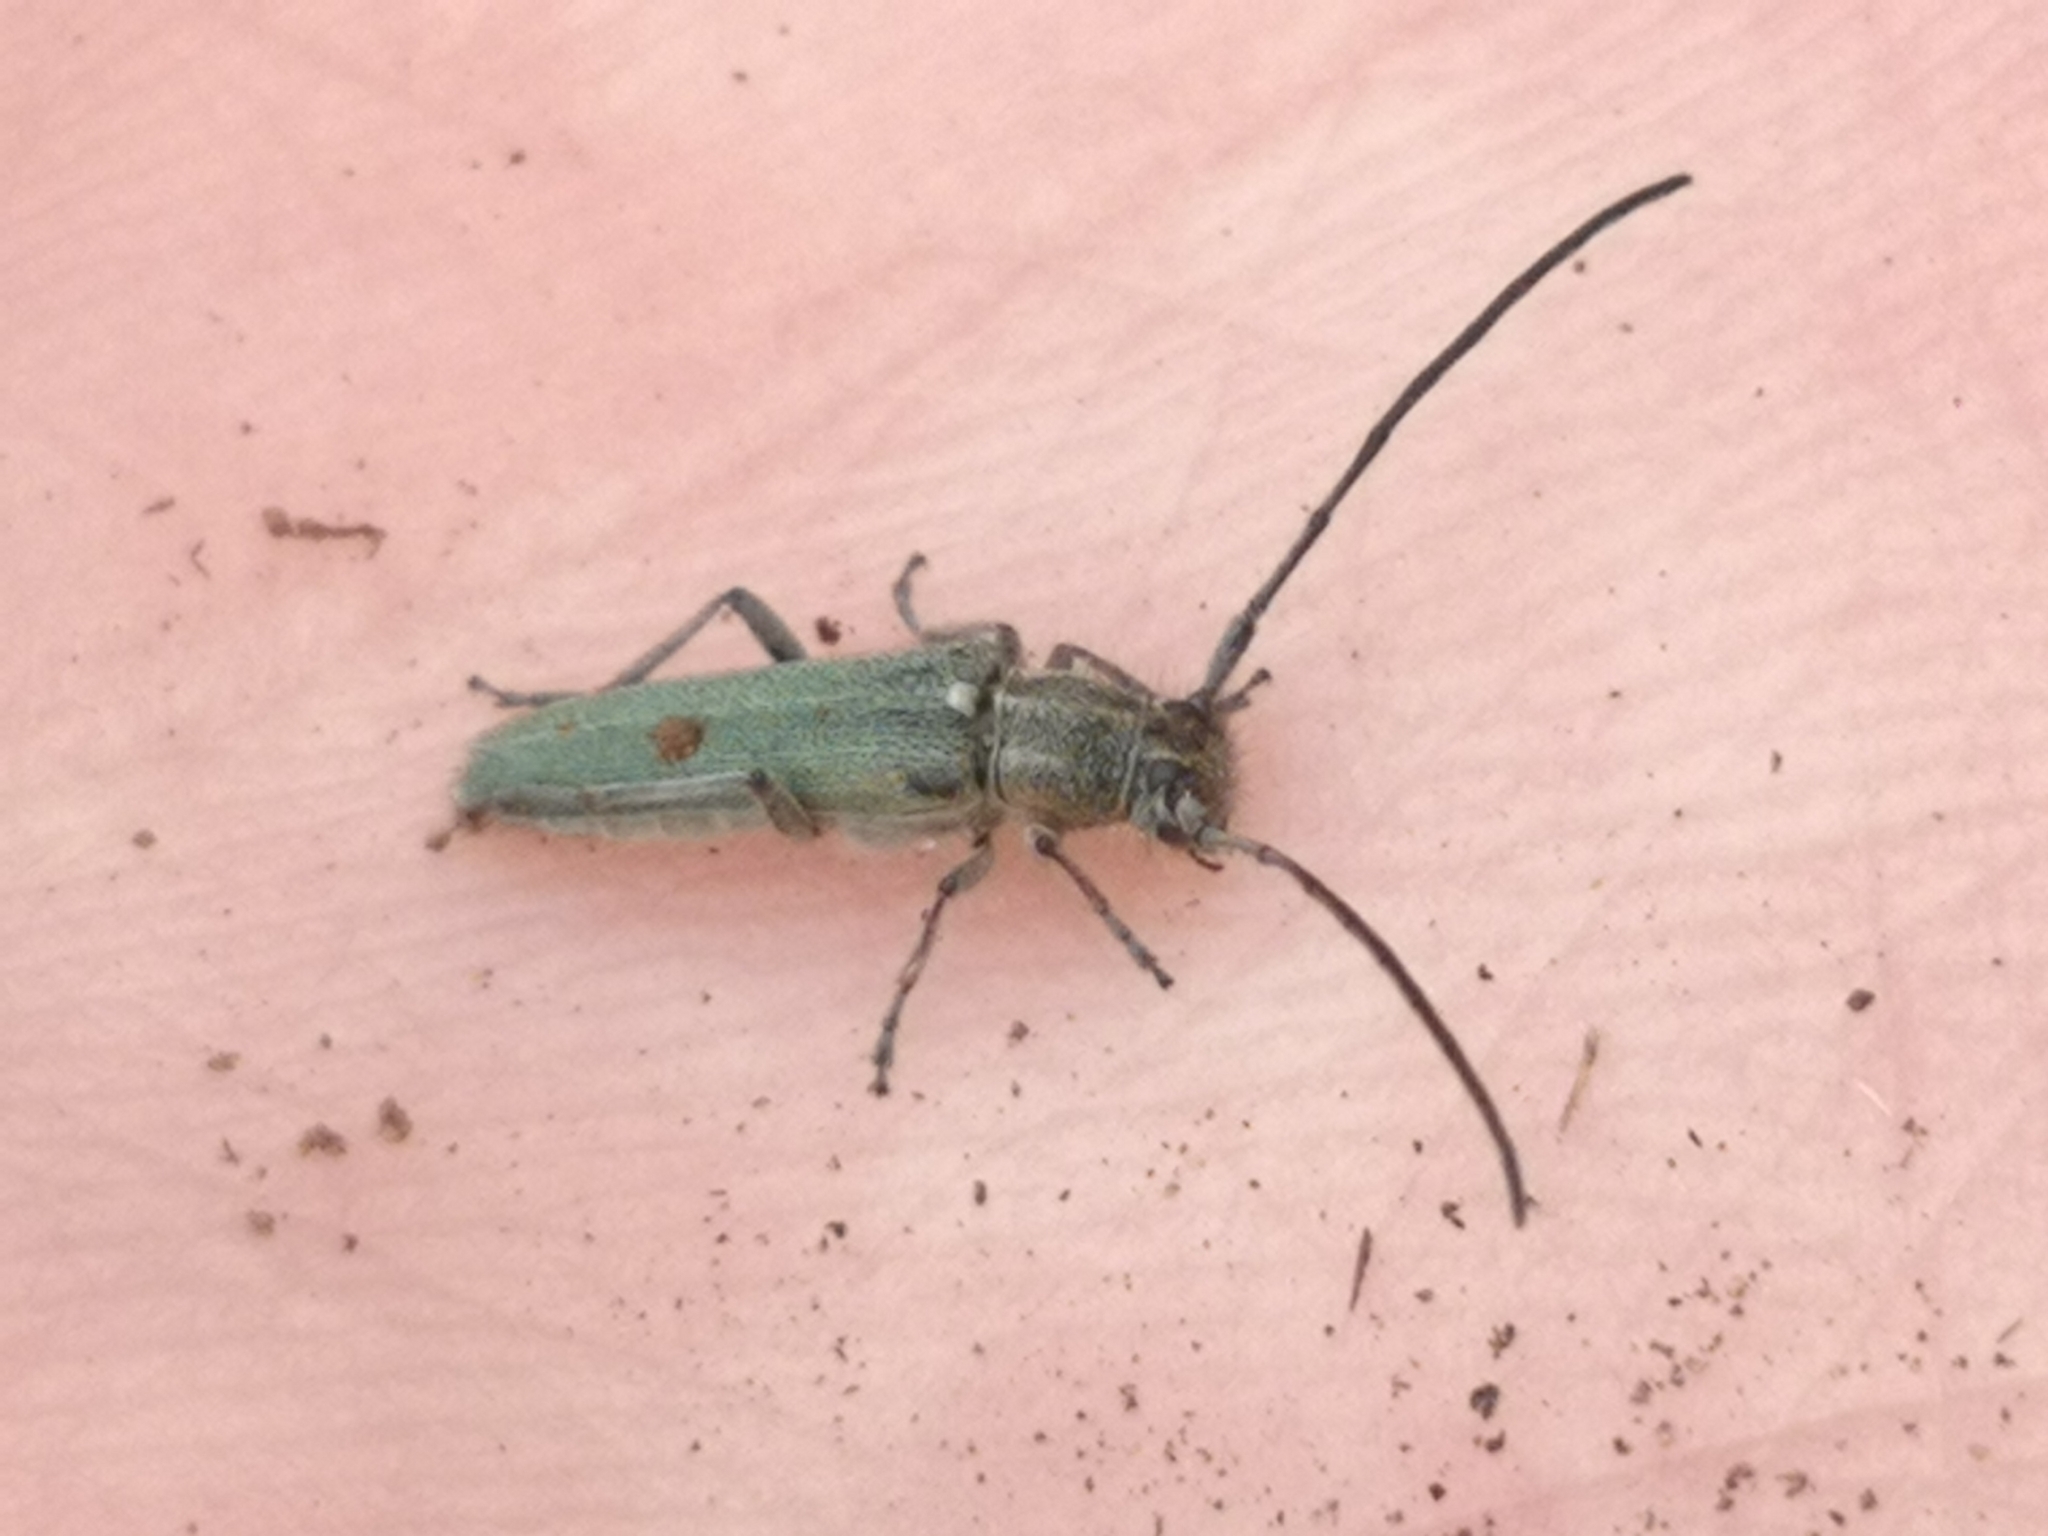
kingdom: Animalia
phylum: Arthropoda
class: Insecta
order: Coleoptera
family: Cerambycidae
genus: Phytoecia
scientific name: Phytoecia coerulescens
